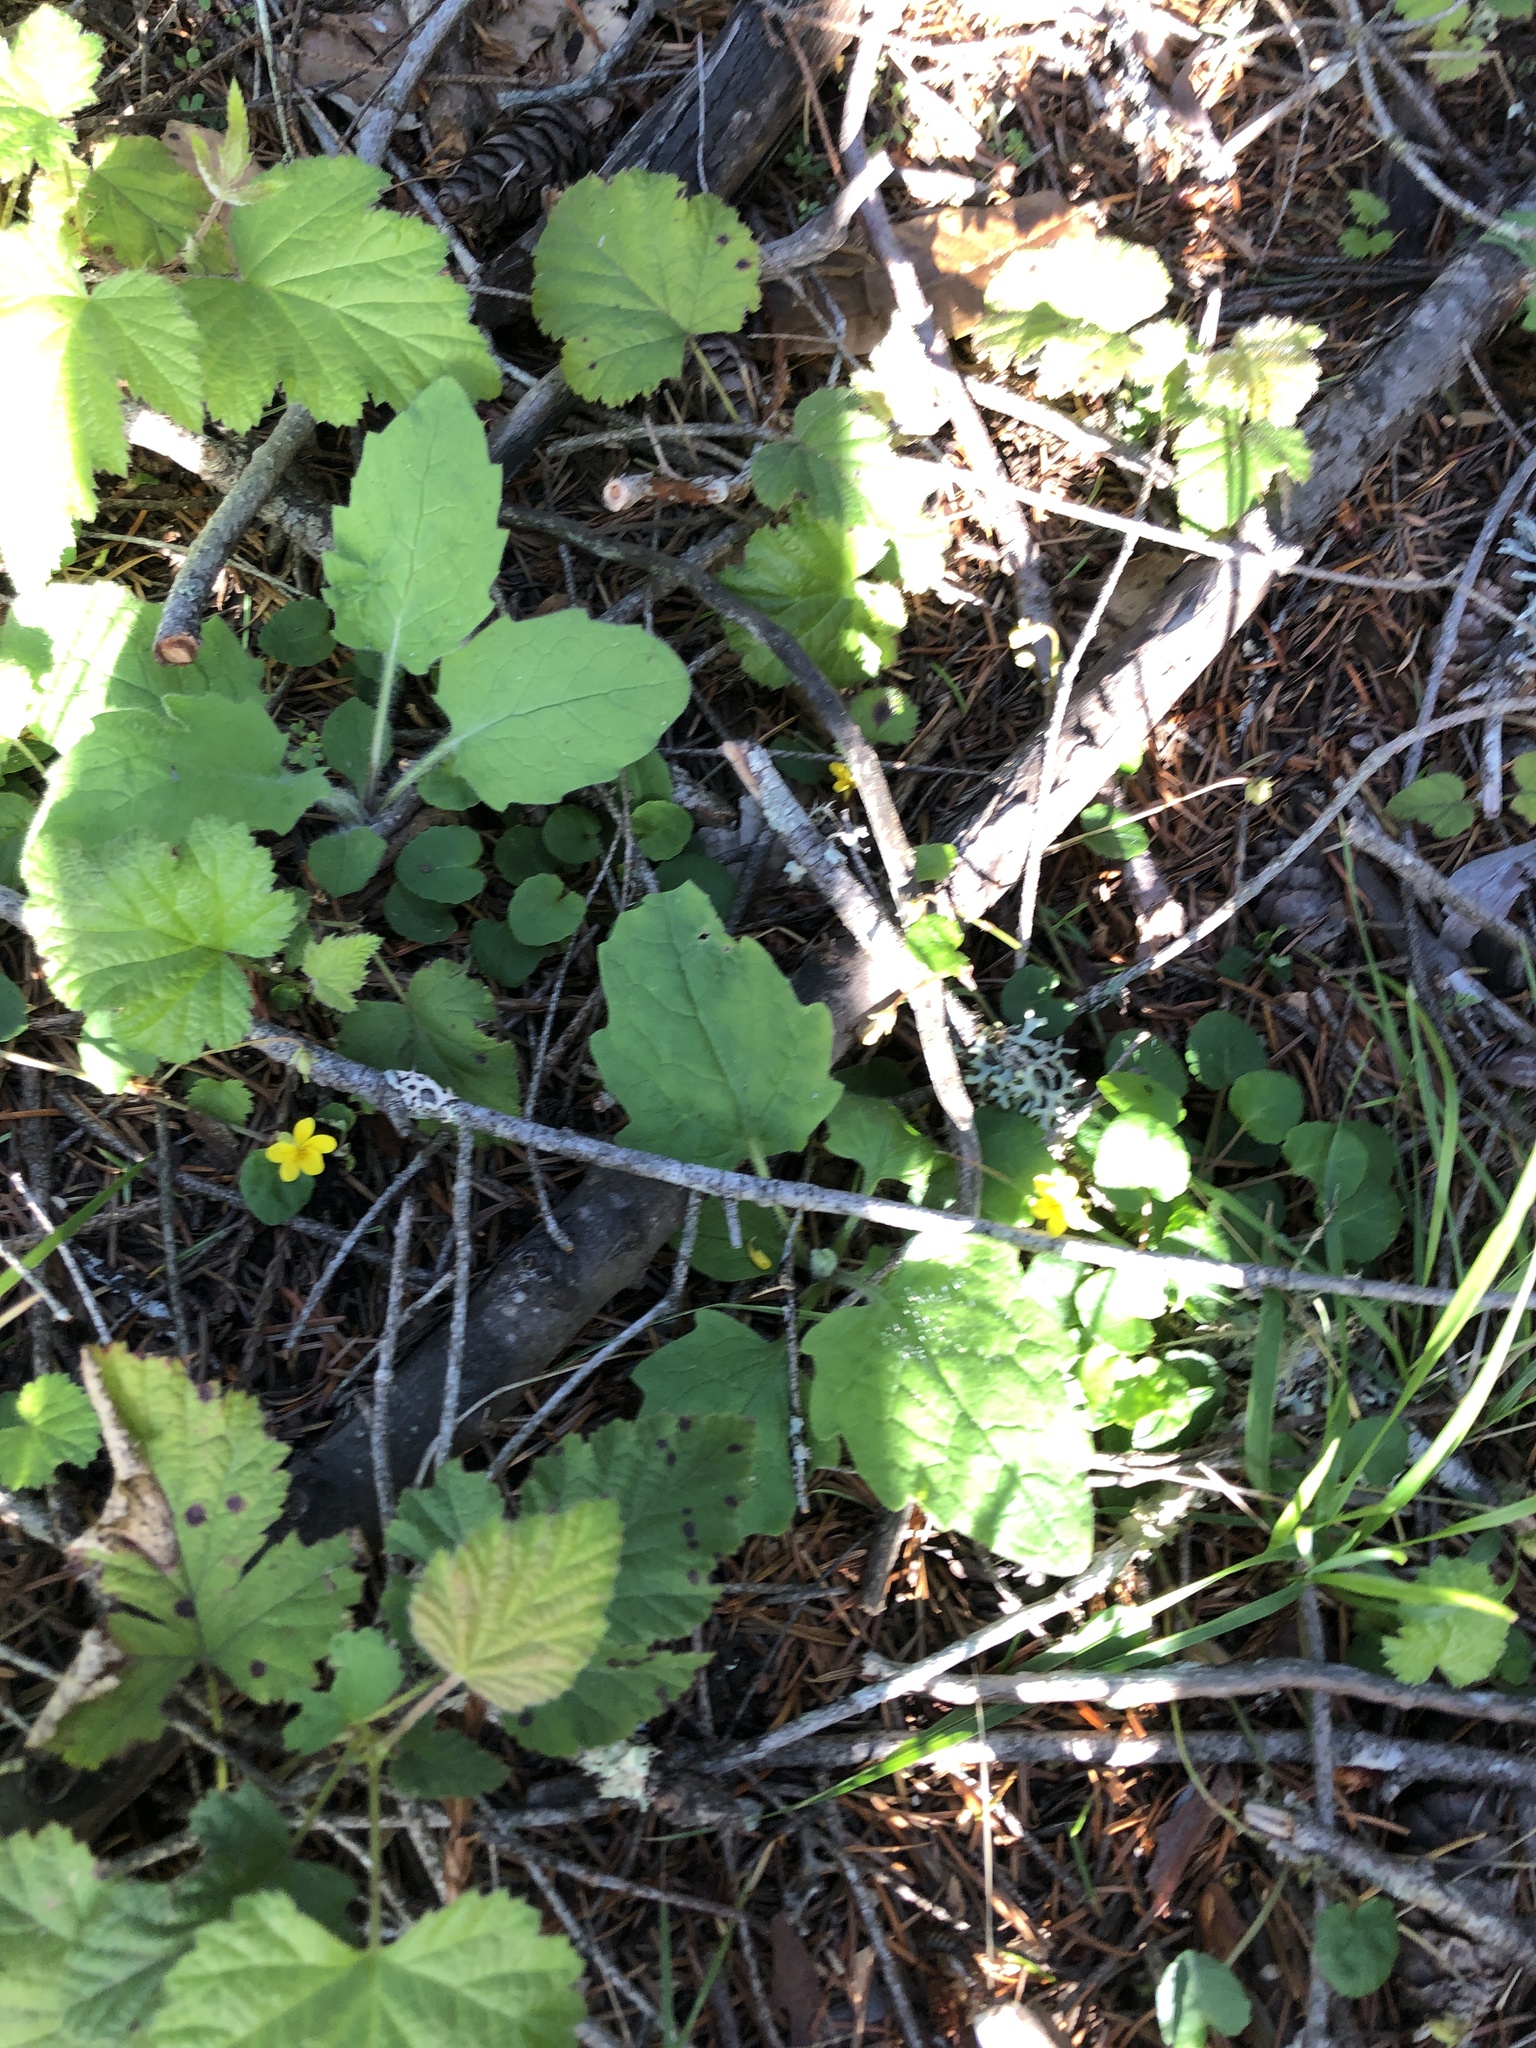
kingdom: Plantae
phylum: Tracheophyta
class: Magnoliopsida
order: Malpighiales
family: Violaceae
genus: Viola
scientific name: Viola sempervirens
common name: Evergreen violet
